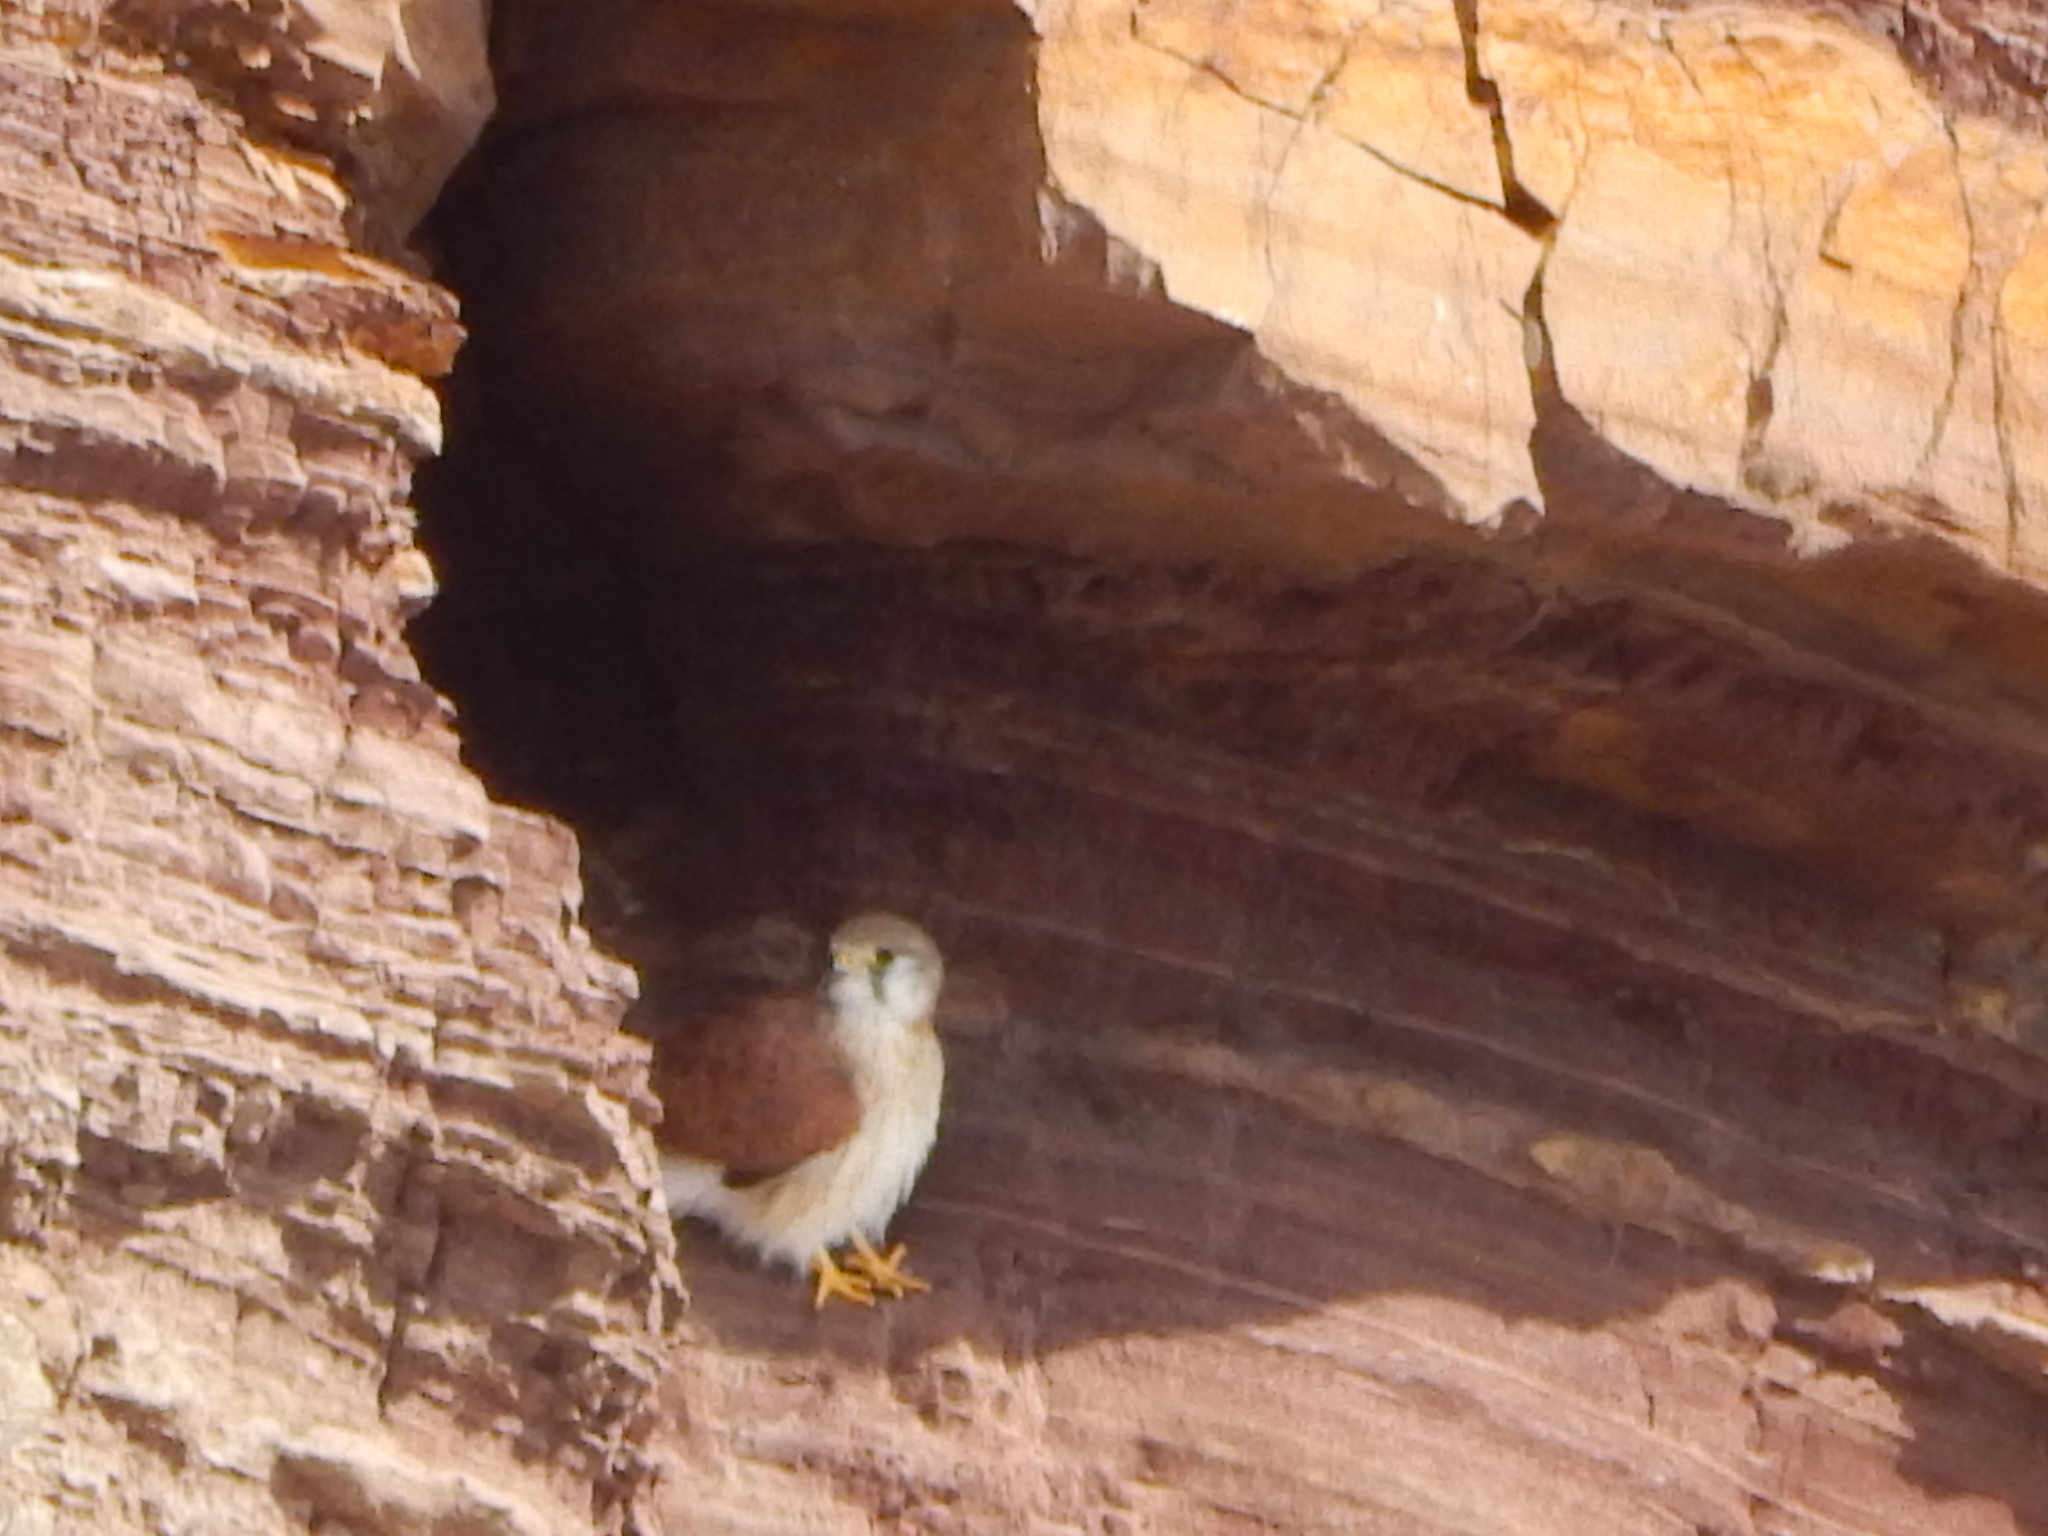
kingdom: Animalia
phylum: Chordata
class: Aves
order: Falconiformes
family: Falconidae
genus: Falco
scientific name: Falco cenchroides
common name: Nankeen kestrel
